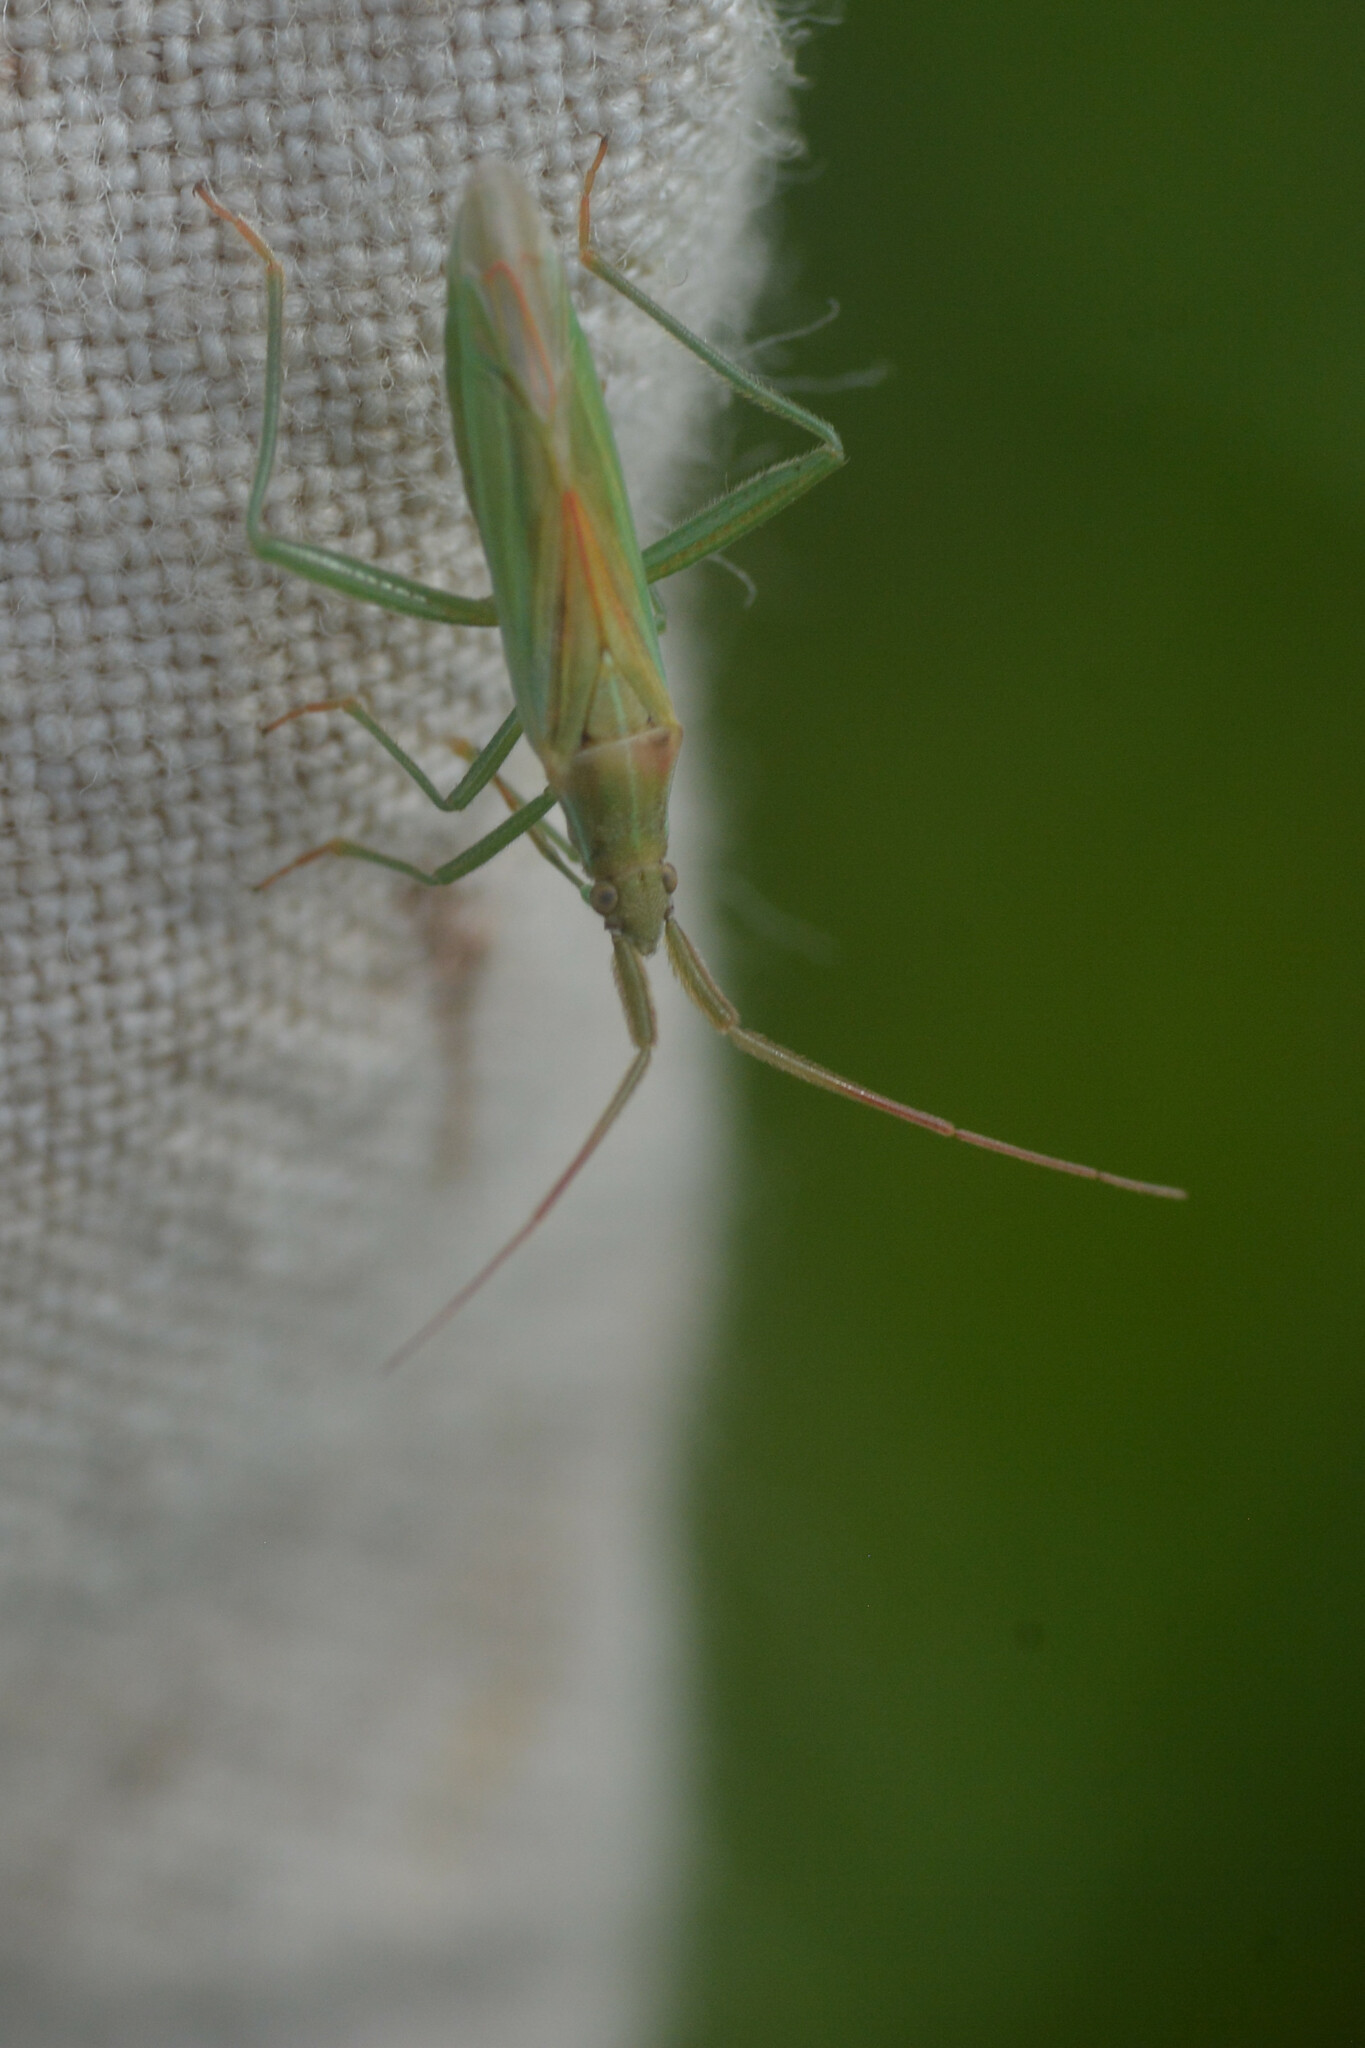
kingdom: Animalia
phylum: Arthropoda
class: Insecta
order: Hemiptera
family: Miridae
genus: Stenodema
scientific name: Stenodema laevigata
